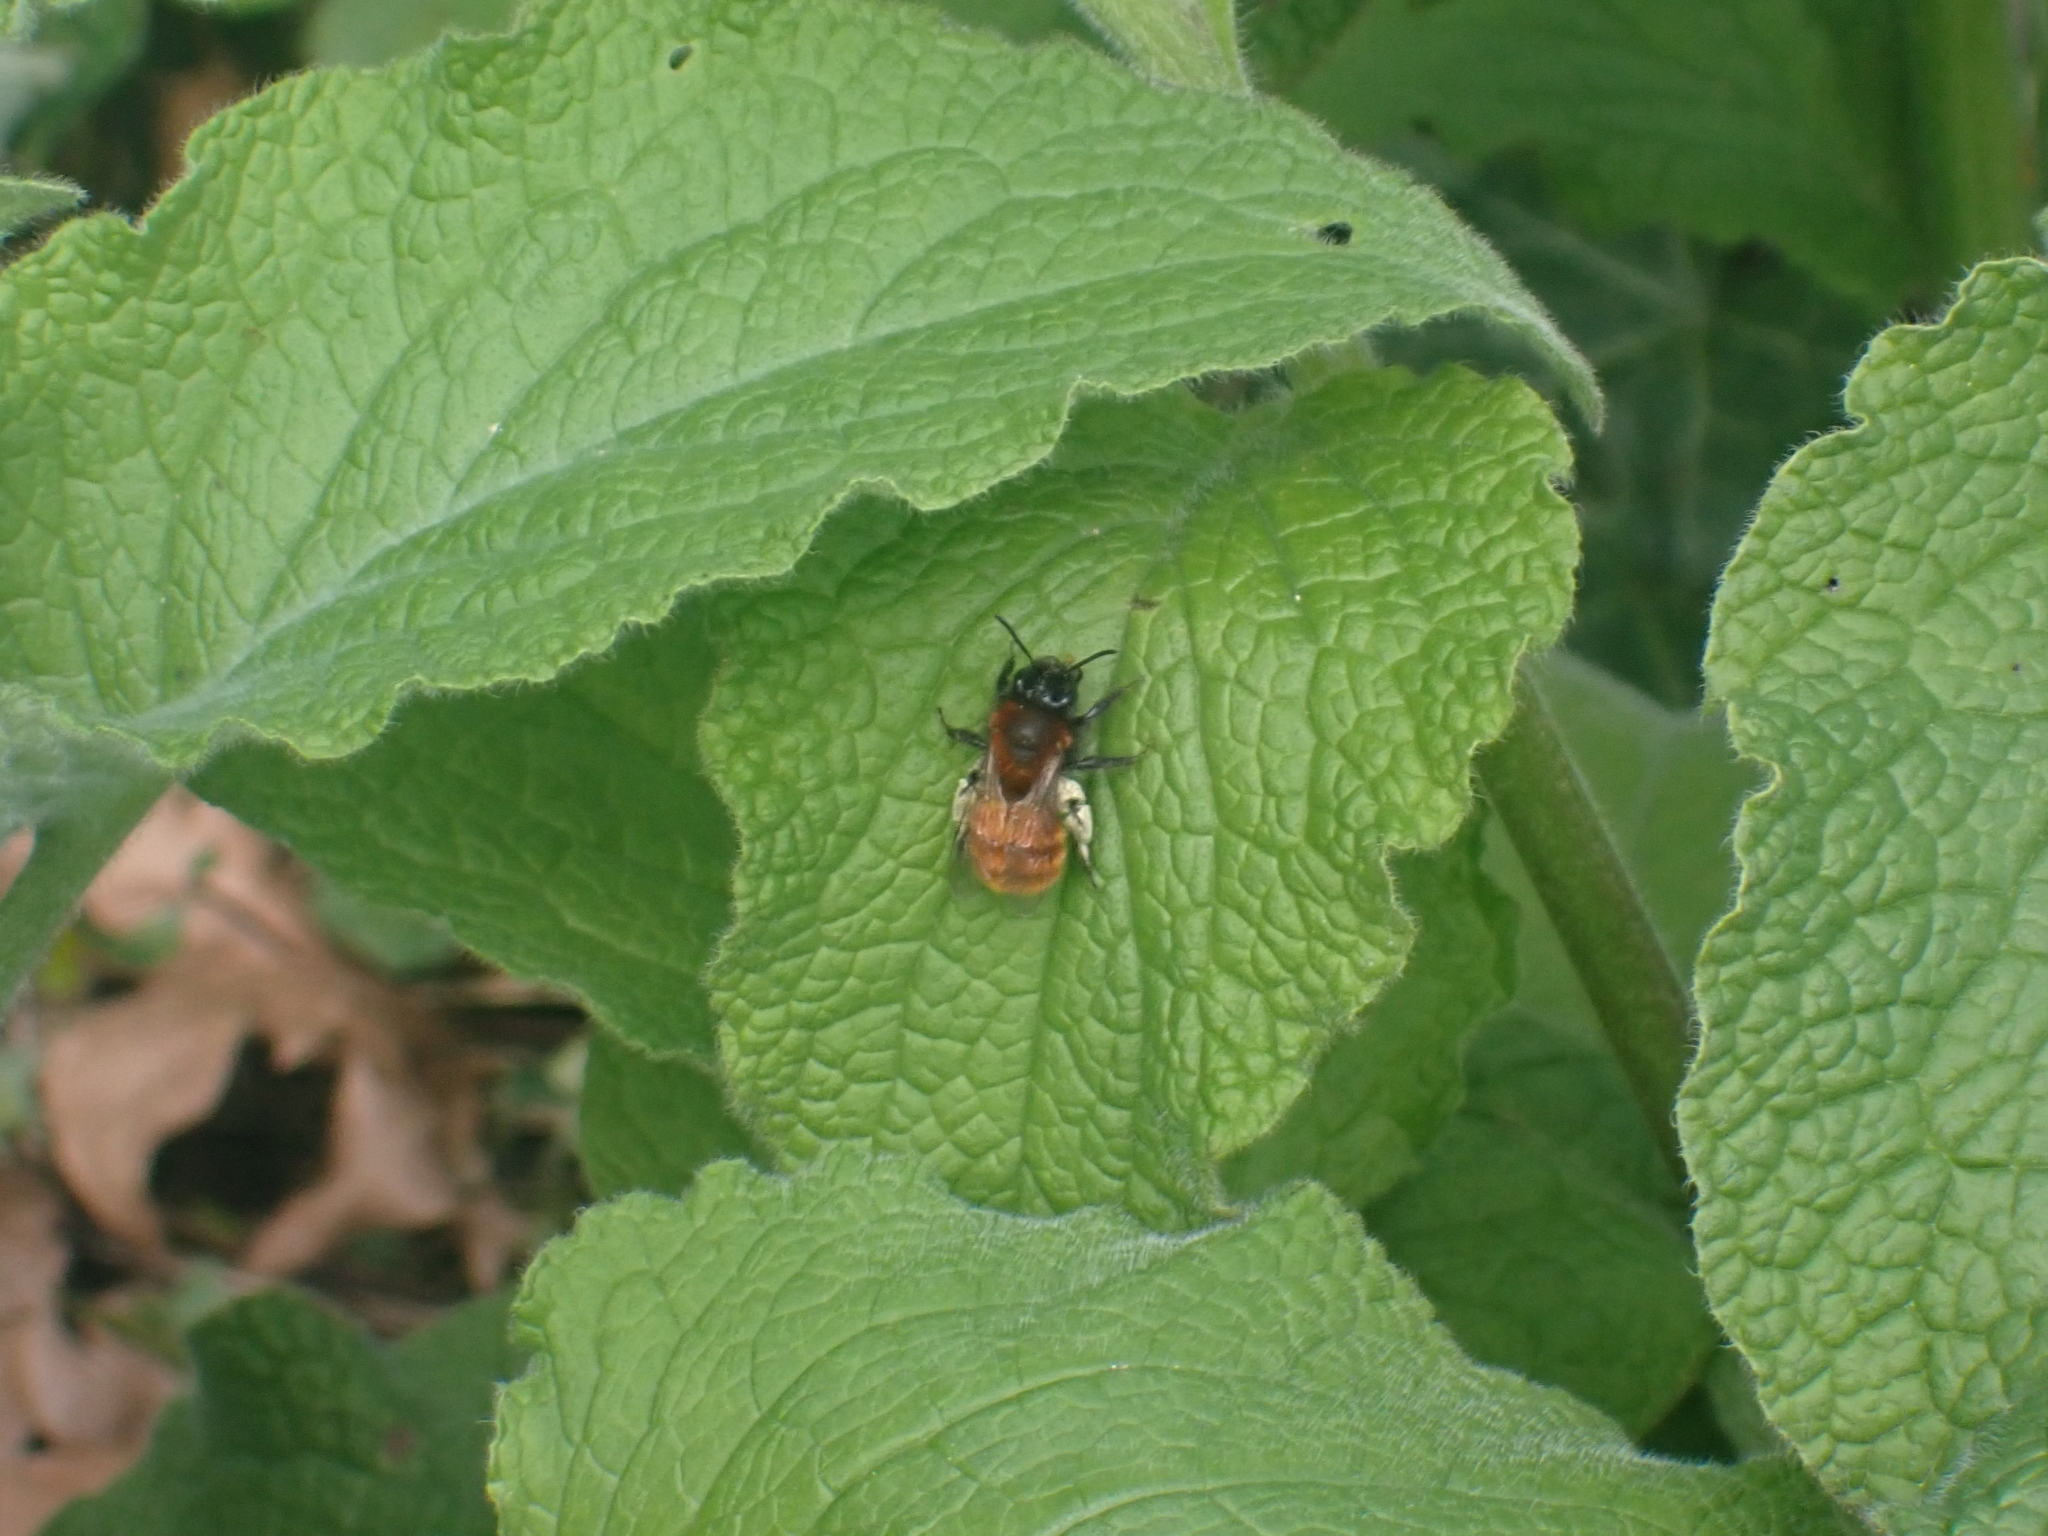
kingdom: Animalia
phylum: Arthropoda
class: Insecta
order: Hymenoptera
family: Andrenidae
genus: Andrena
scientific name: Andrena fulva
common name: Tawny mining bee
